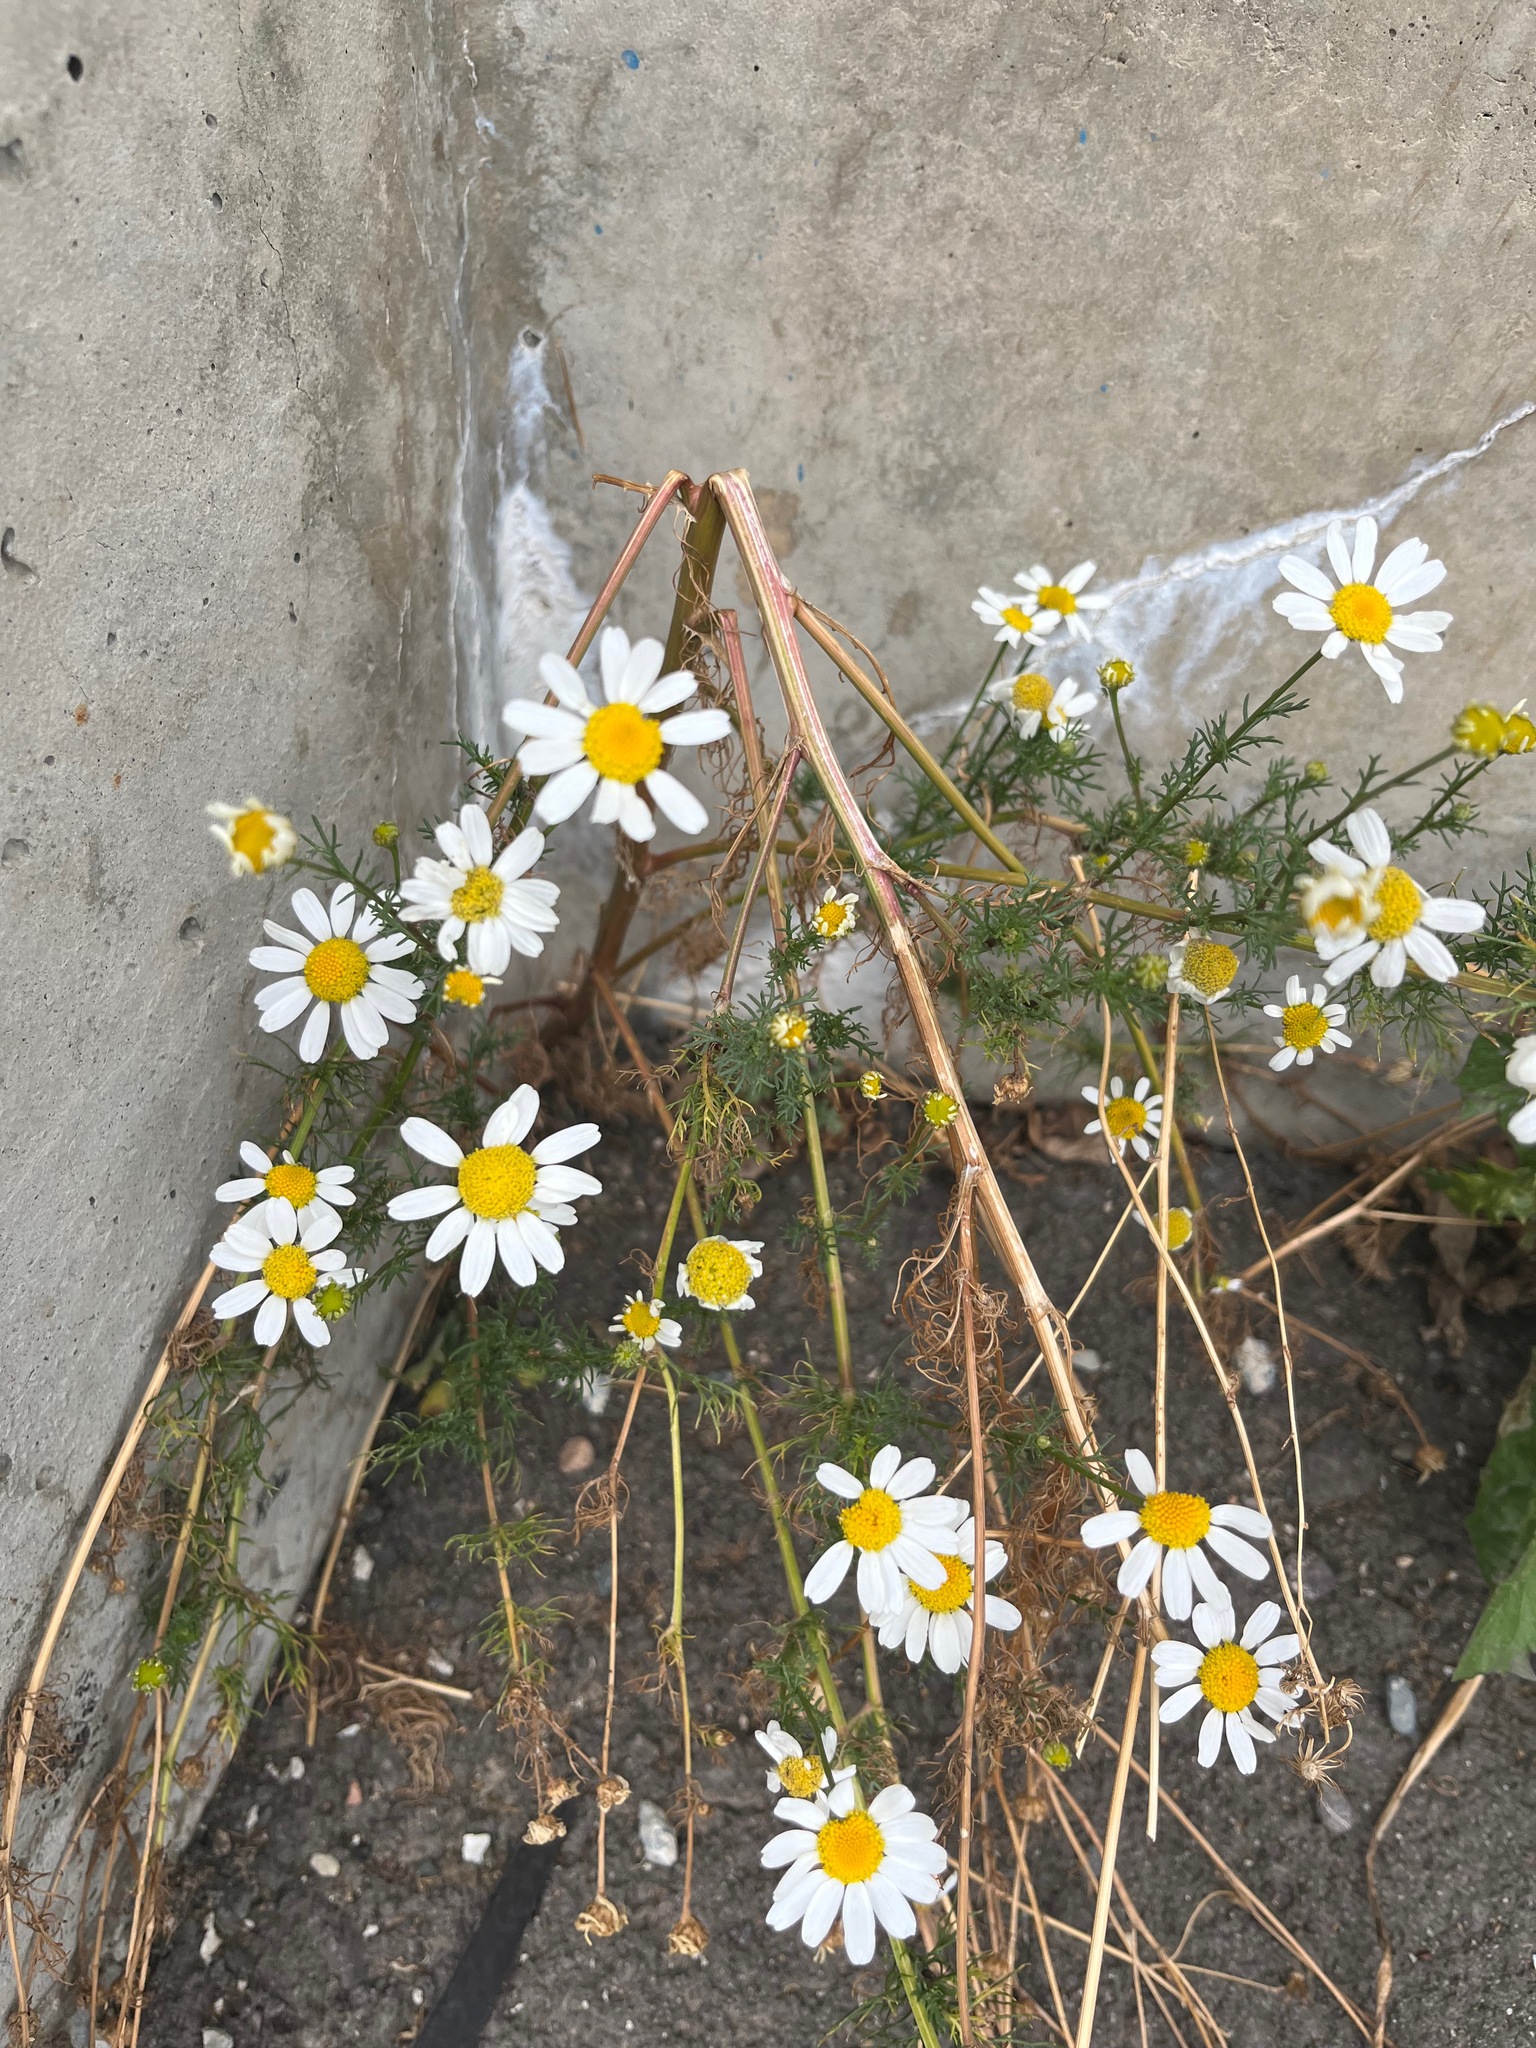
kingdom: Plantae
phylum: Tracheophyta
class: Magnoliopsida
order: Asterales
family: Asteraceae
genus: Tripleurospermum
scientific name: Tripleurospermum inodorum
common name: Scentless mayweed
